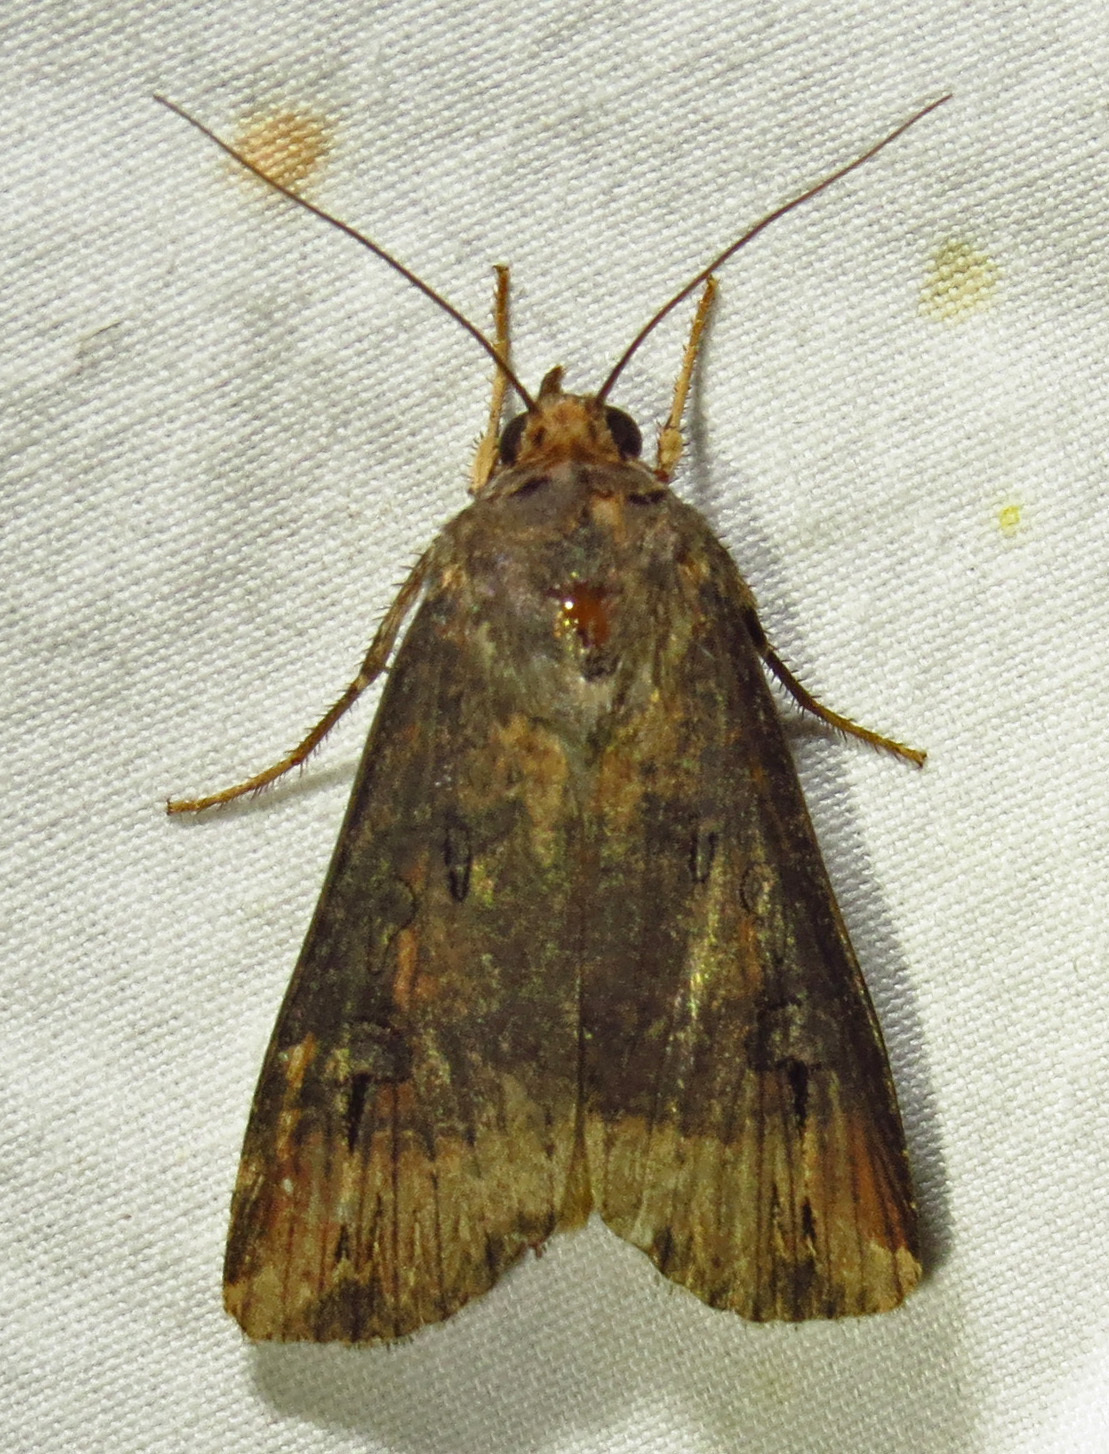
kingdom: Animalia
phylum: Arthropoda
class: Insecta
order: Lepidoptera
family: Noctuidae
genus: Agrotis
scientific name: Agrotis ipsilon
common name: Dark sword-grass
